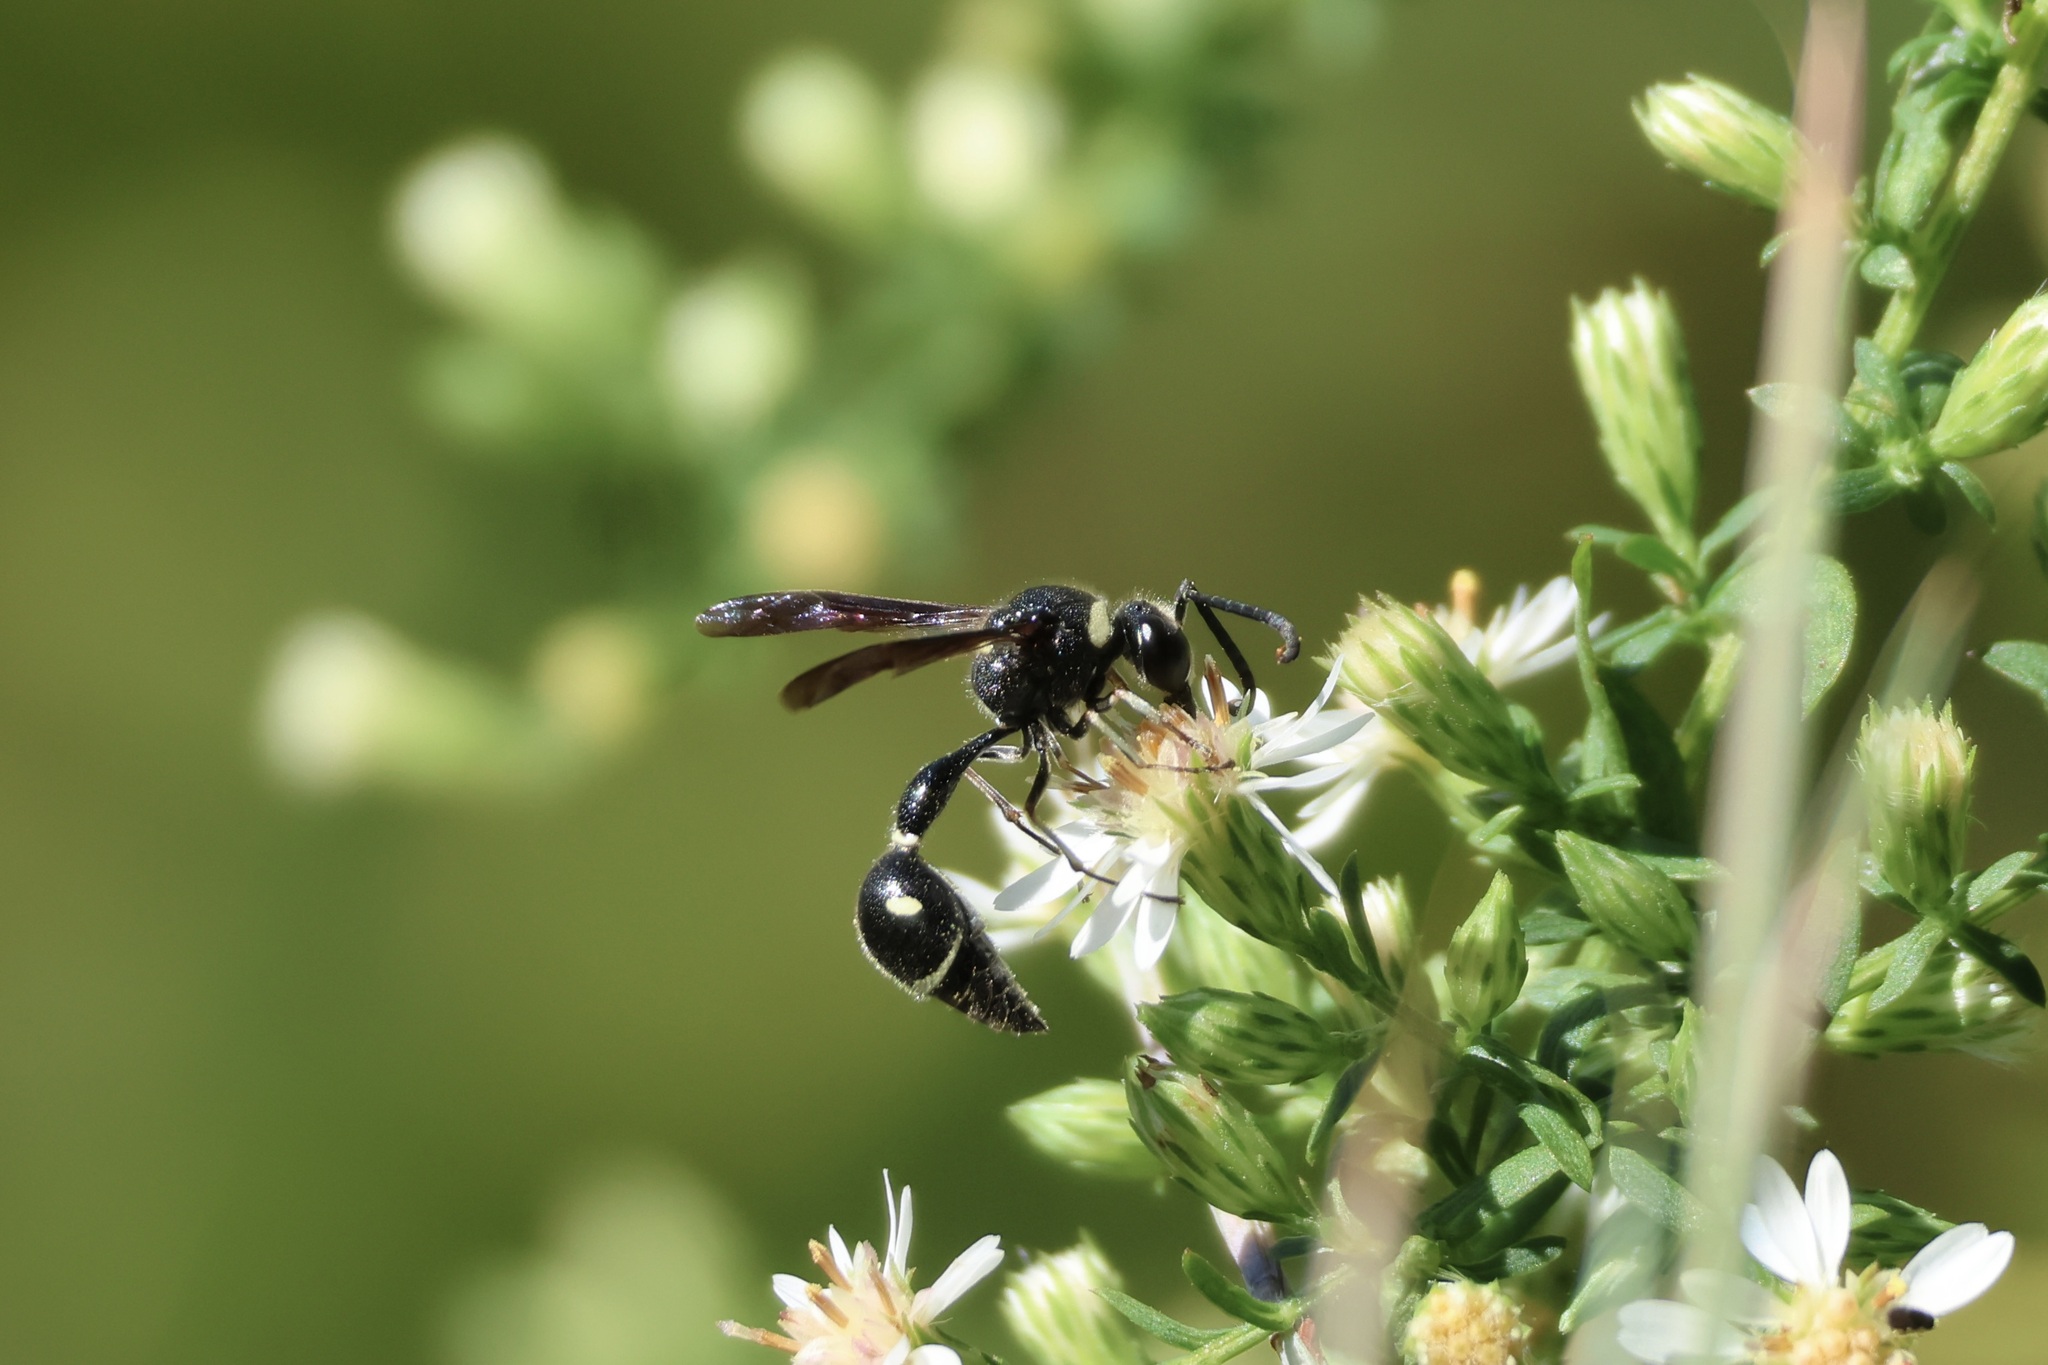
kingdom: Animalia
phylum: Arthropoda
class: Insecta
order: Hymenoptera
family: Vespidae
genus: Eumenes
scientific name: Eumenes fraternus
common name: Fraternal potter wasp
